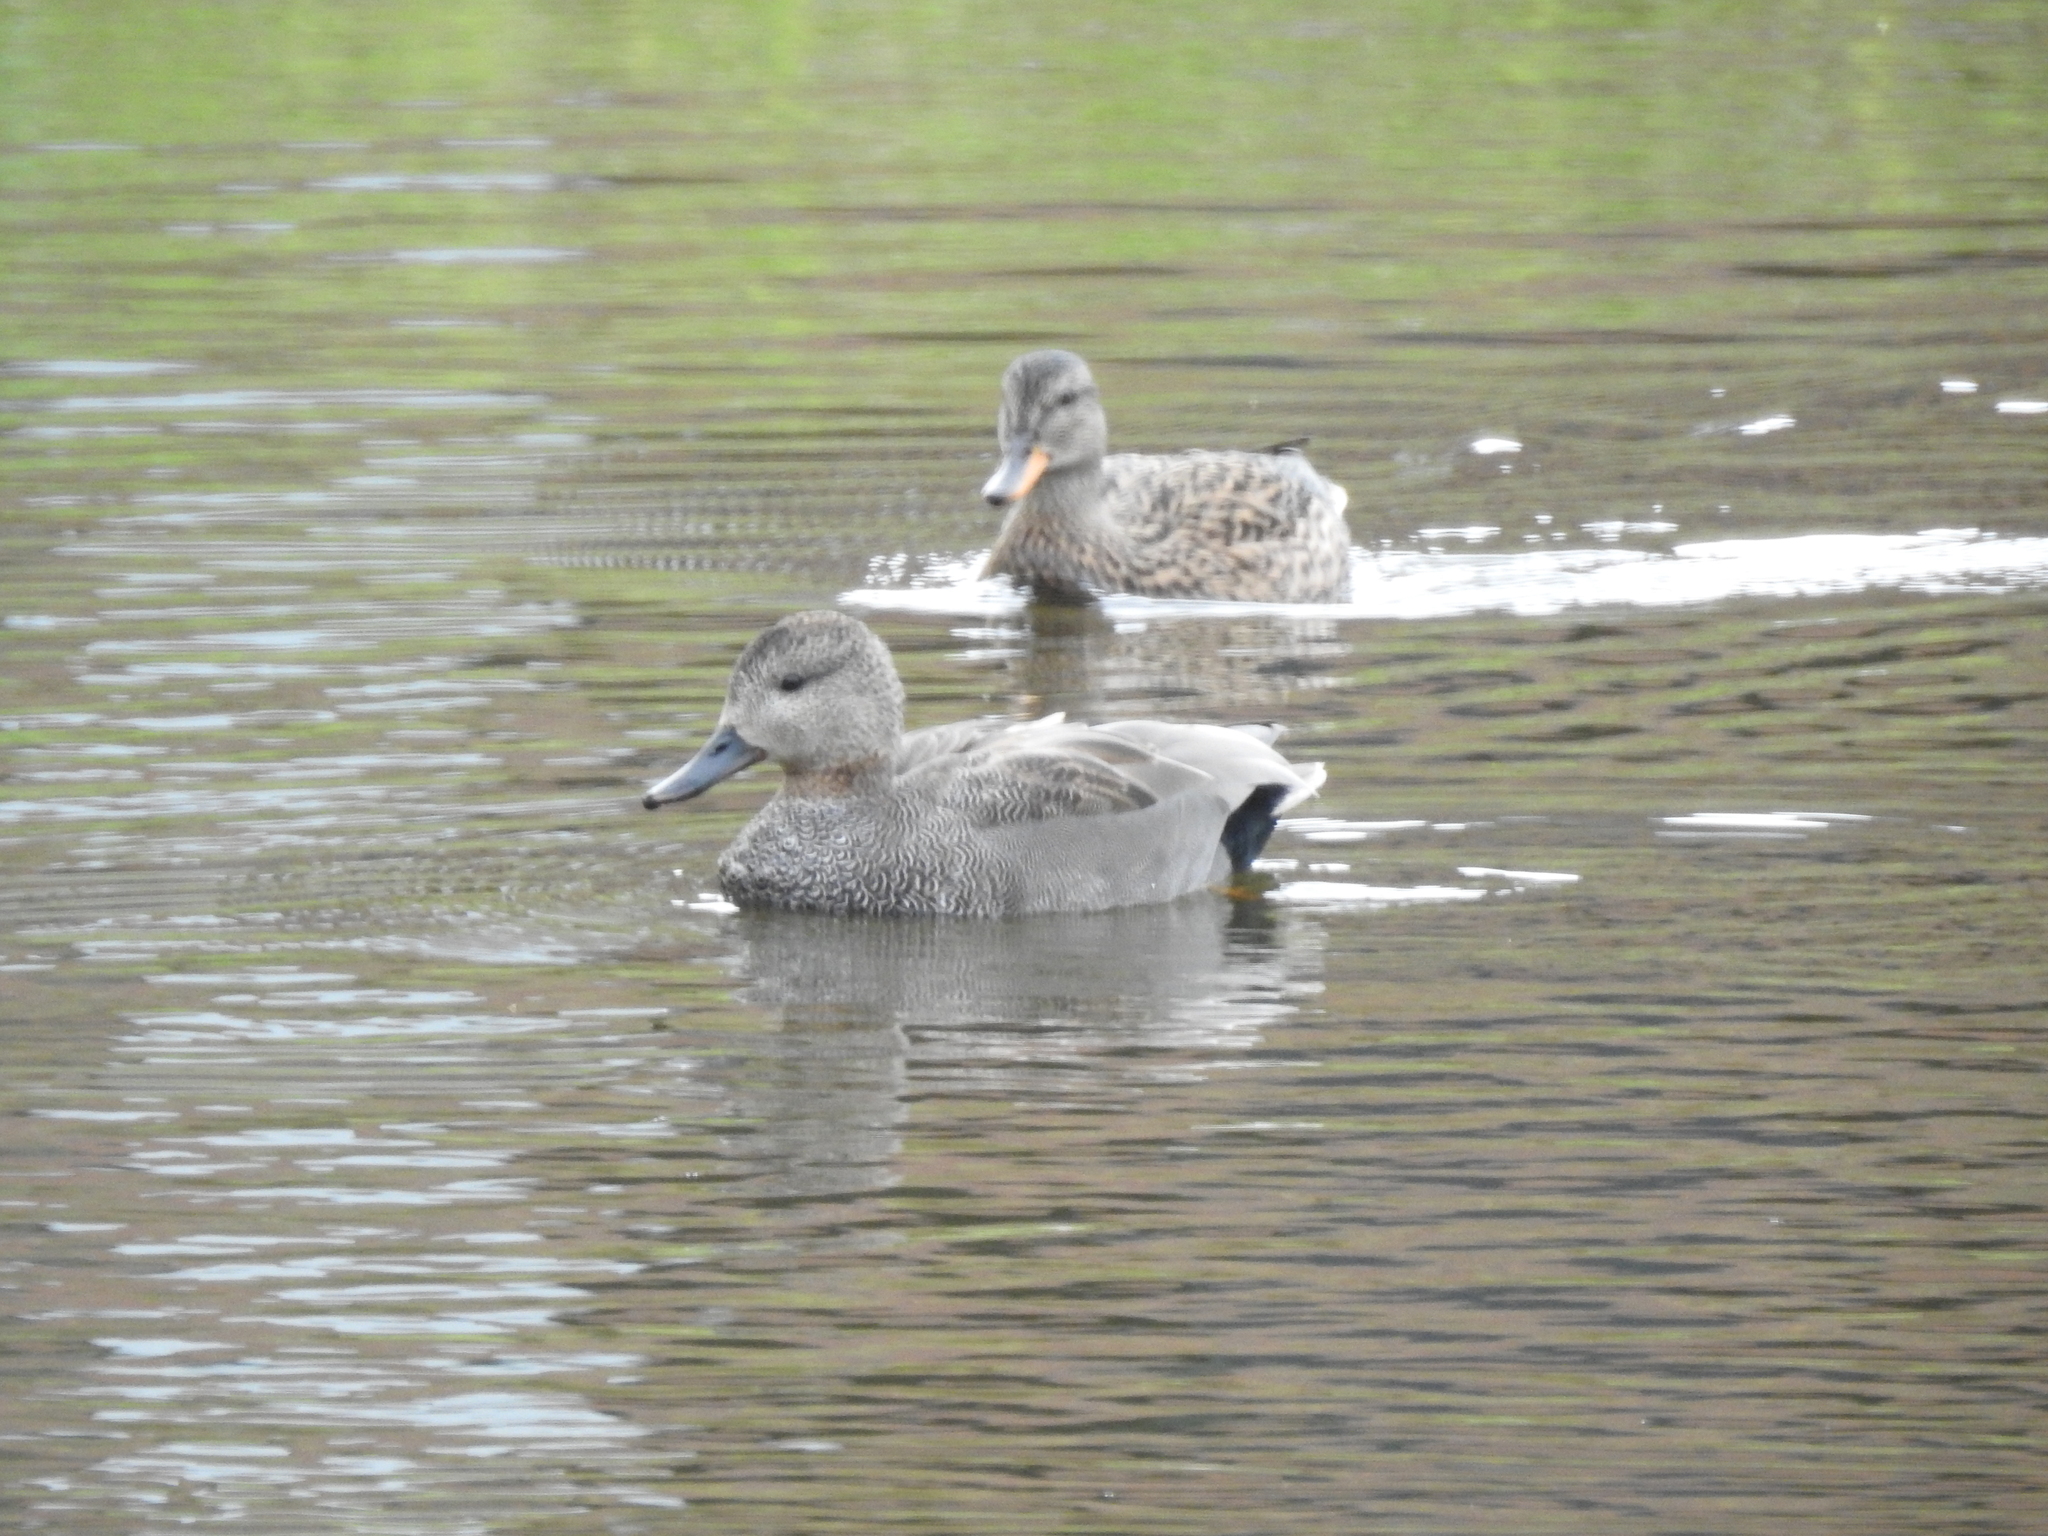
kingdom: Animalia
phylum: Chordata
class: Aves
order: Anseriformes
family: Anatidae
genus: Mareca
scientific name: Mareca strepera
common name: Gadwall
